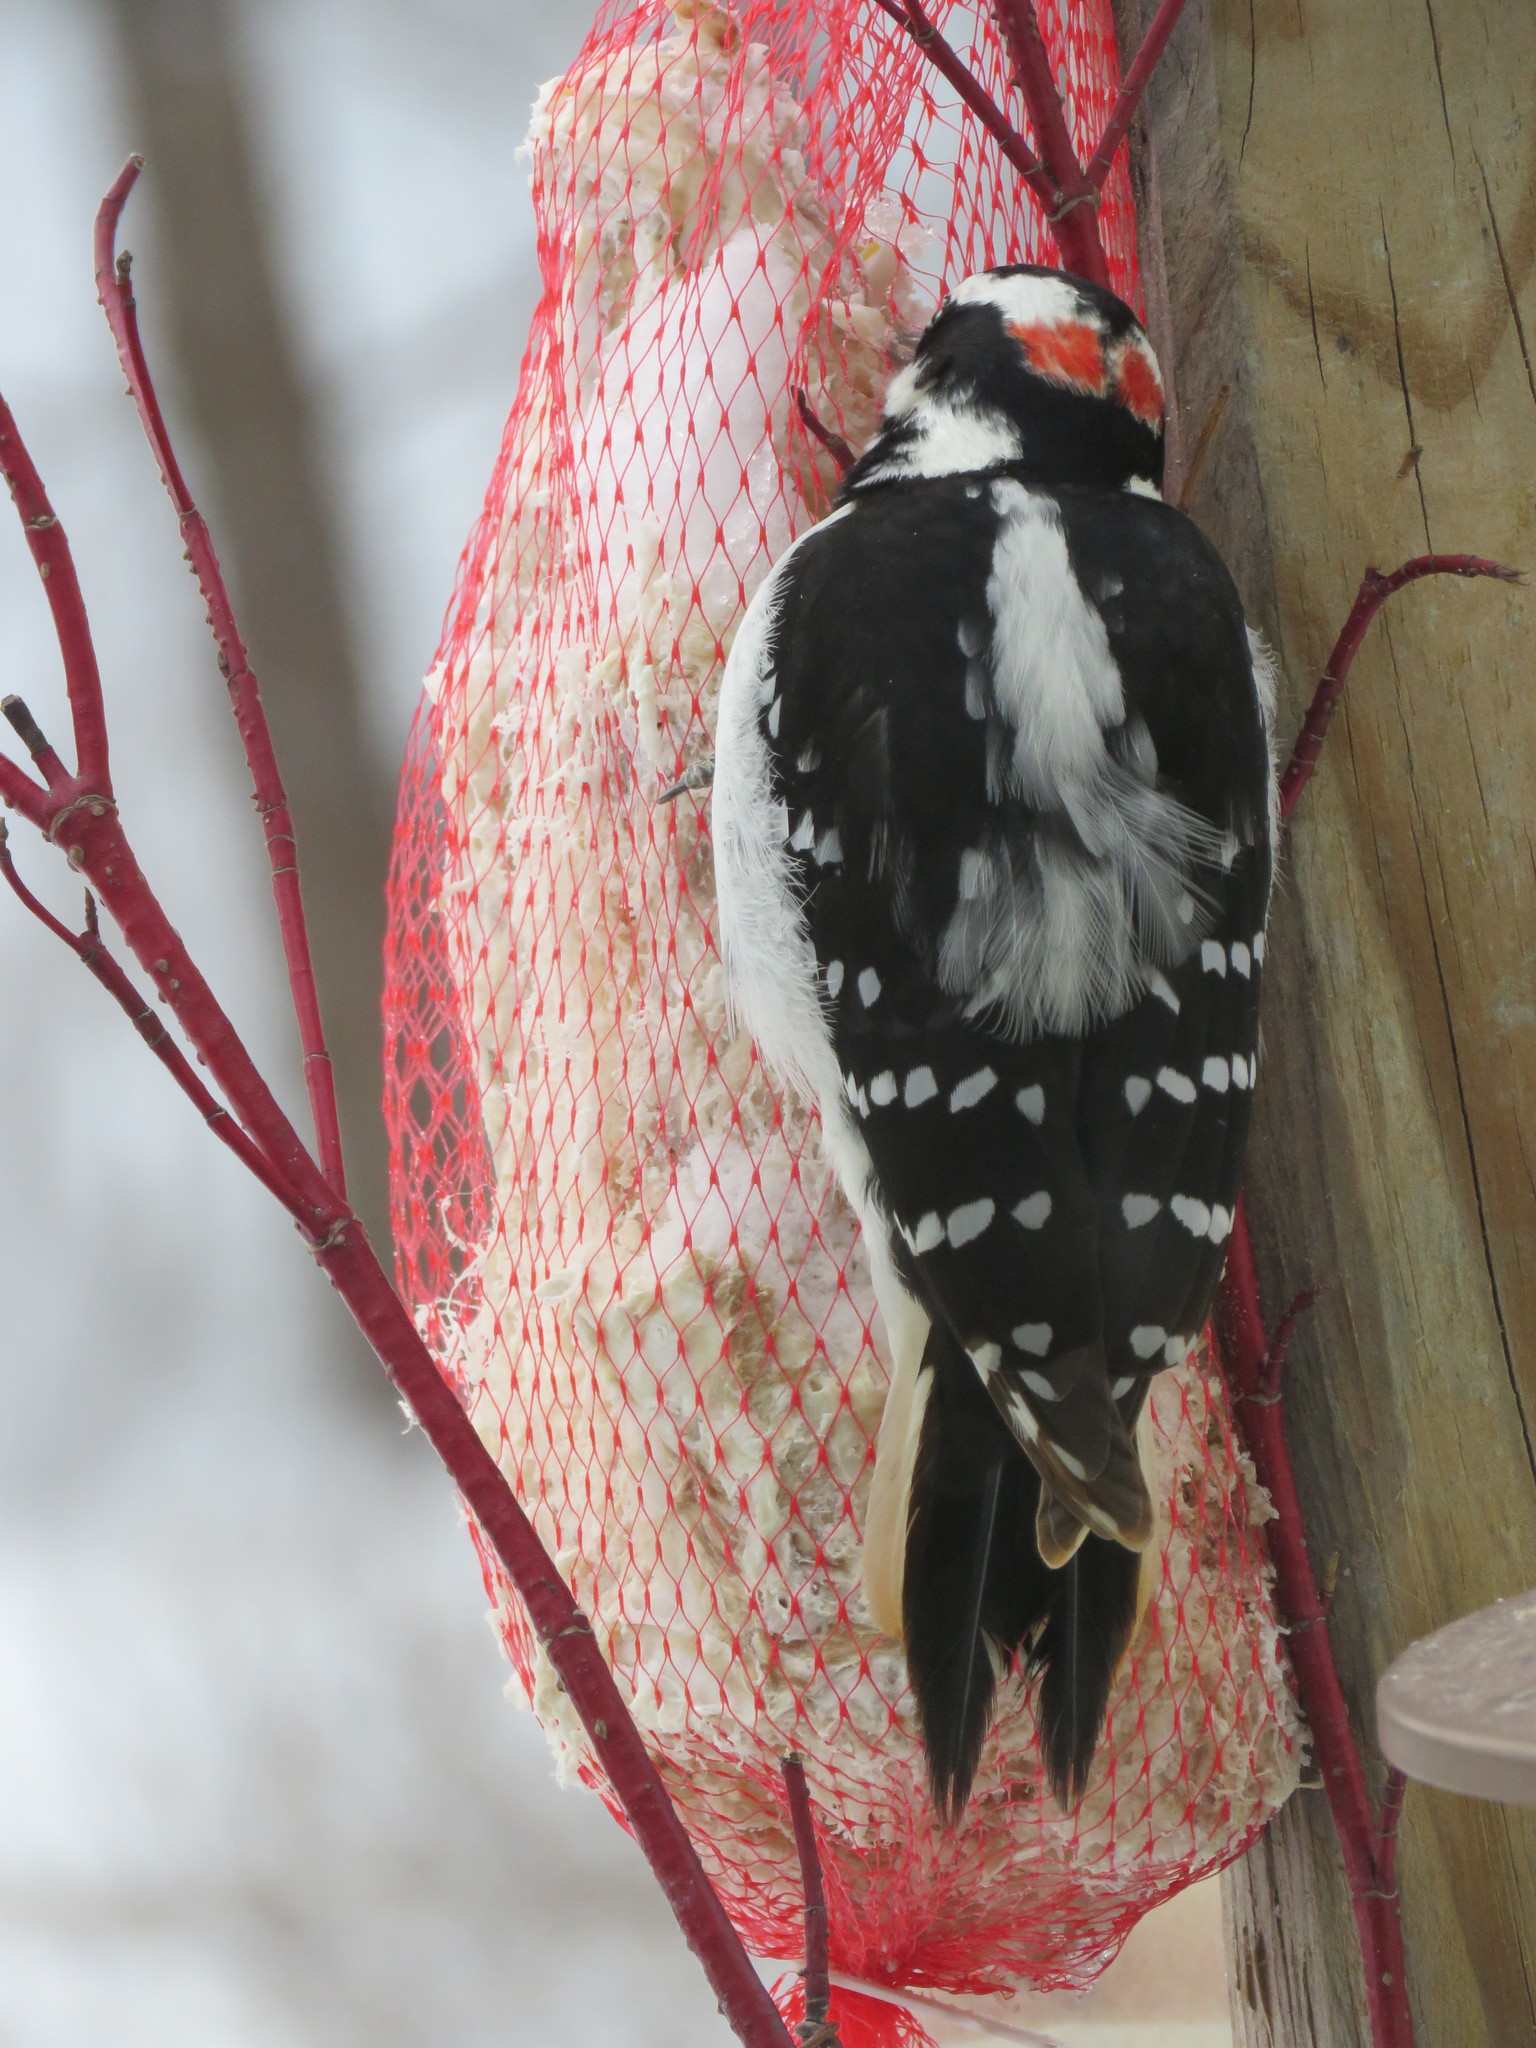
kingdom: Animalia
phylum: Chordata
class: Aves
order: Piciformes
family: Picidae
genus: Leuconotopicus
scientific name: Leuconotopicus villosus
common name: Hairy woodpecker
